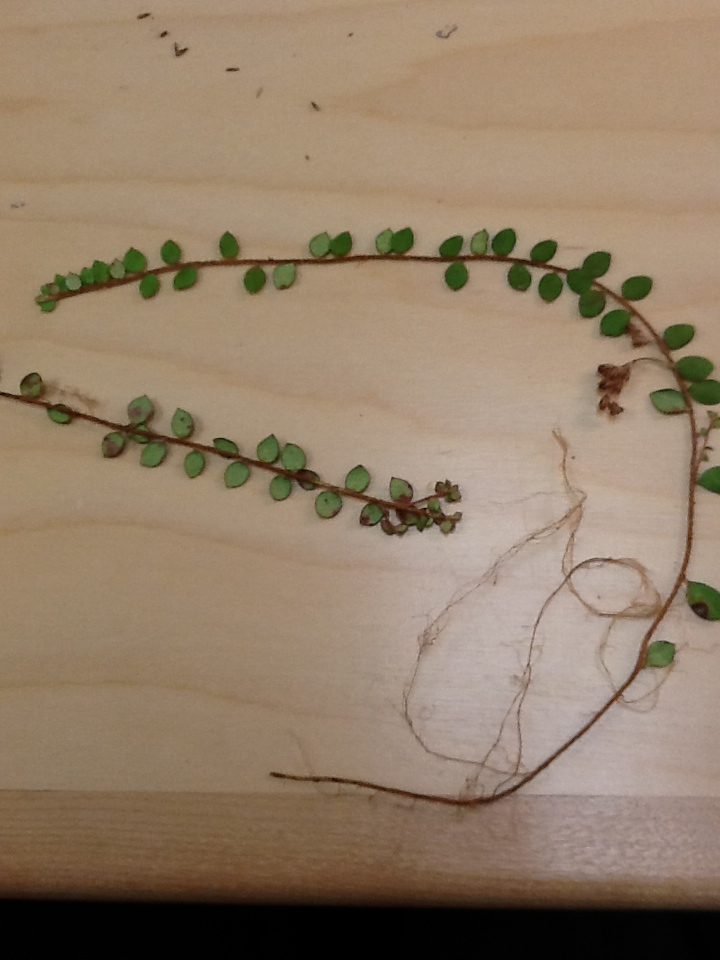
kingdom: Plantae
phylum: Tracheophyta
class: Magnoliopsida
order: Ericales
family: Ericaceae
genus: Gaultheria
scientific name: Gaultheria hispidula
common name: Cancer wintergreen
